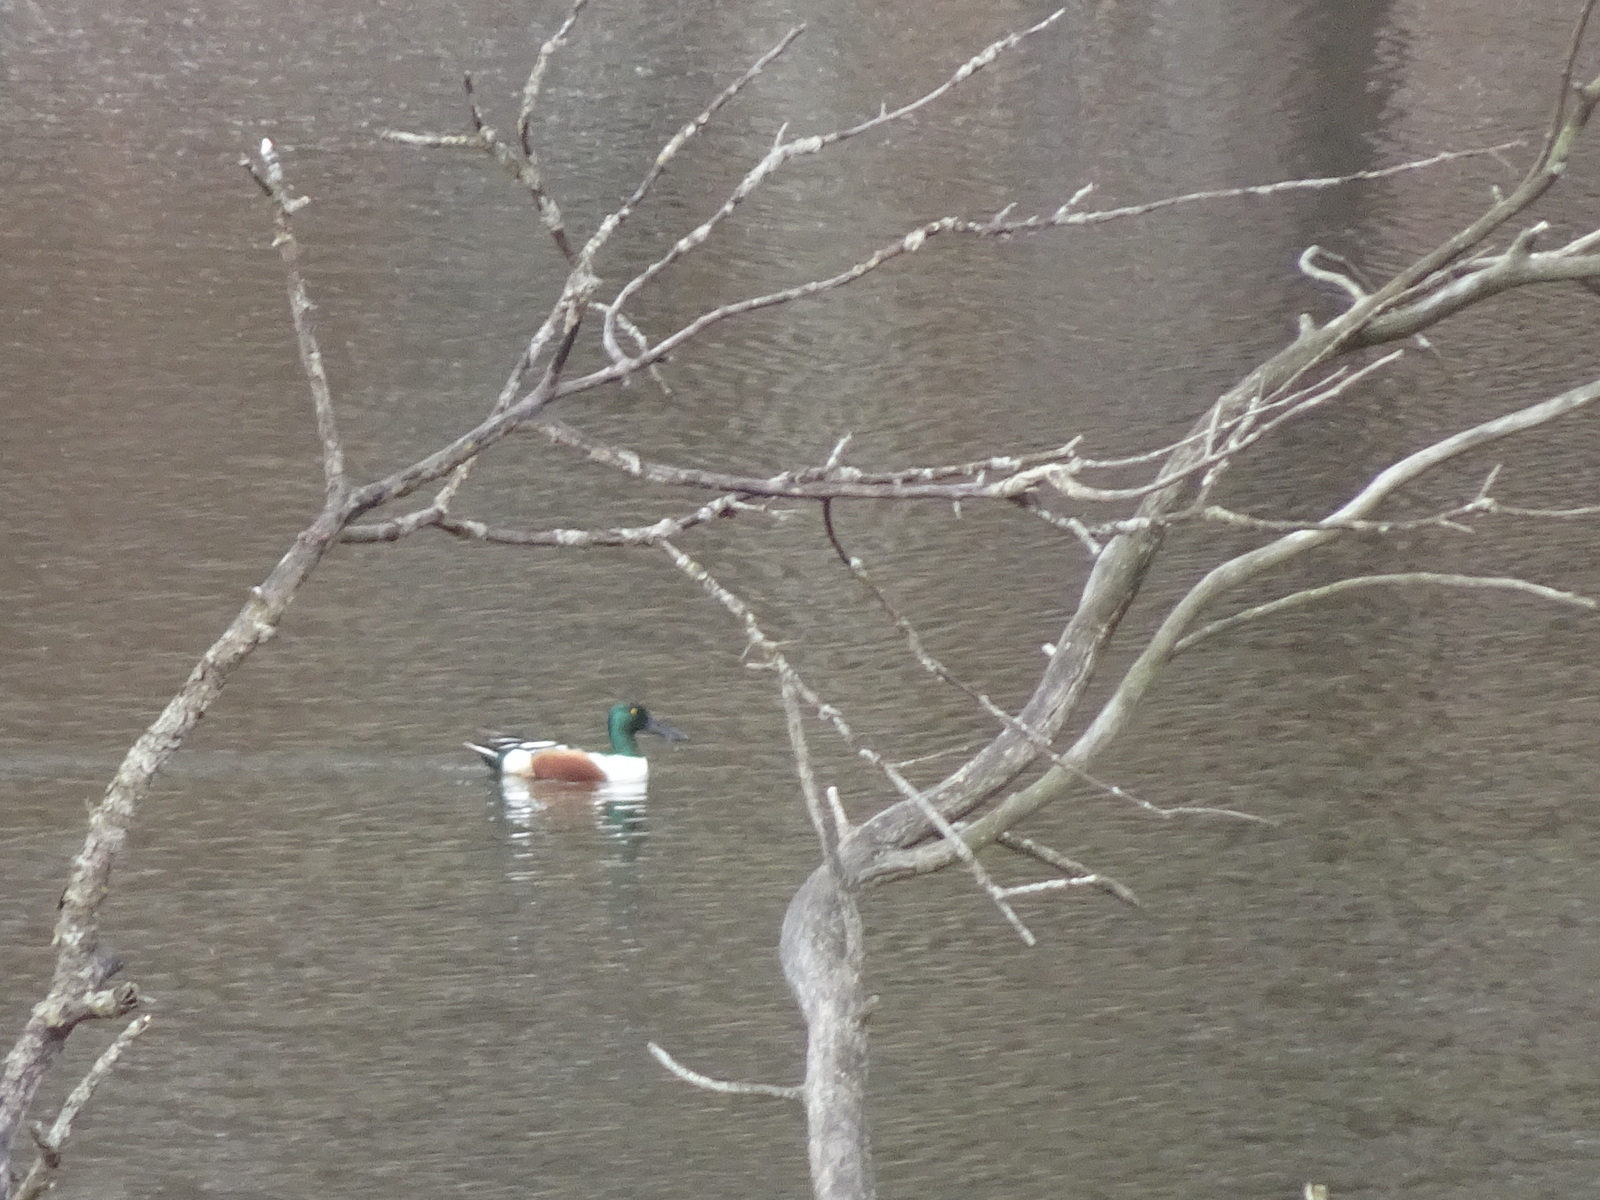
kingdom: Animalia
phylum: Chordata
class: Aves
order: Anseriformes
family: Anatidae
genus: Spatula
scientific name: Spatula clypeata
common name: Northern shoveler
